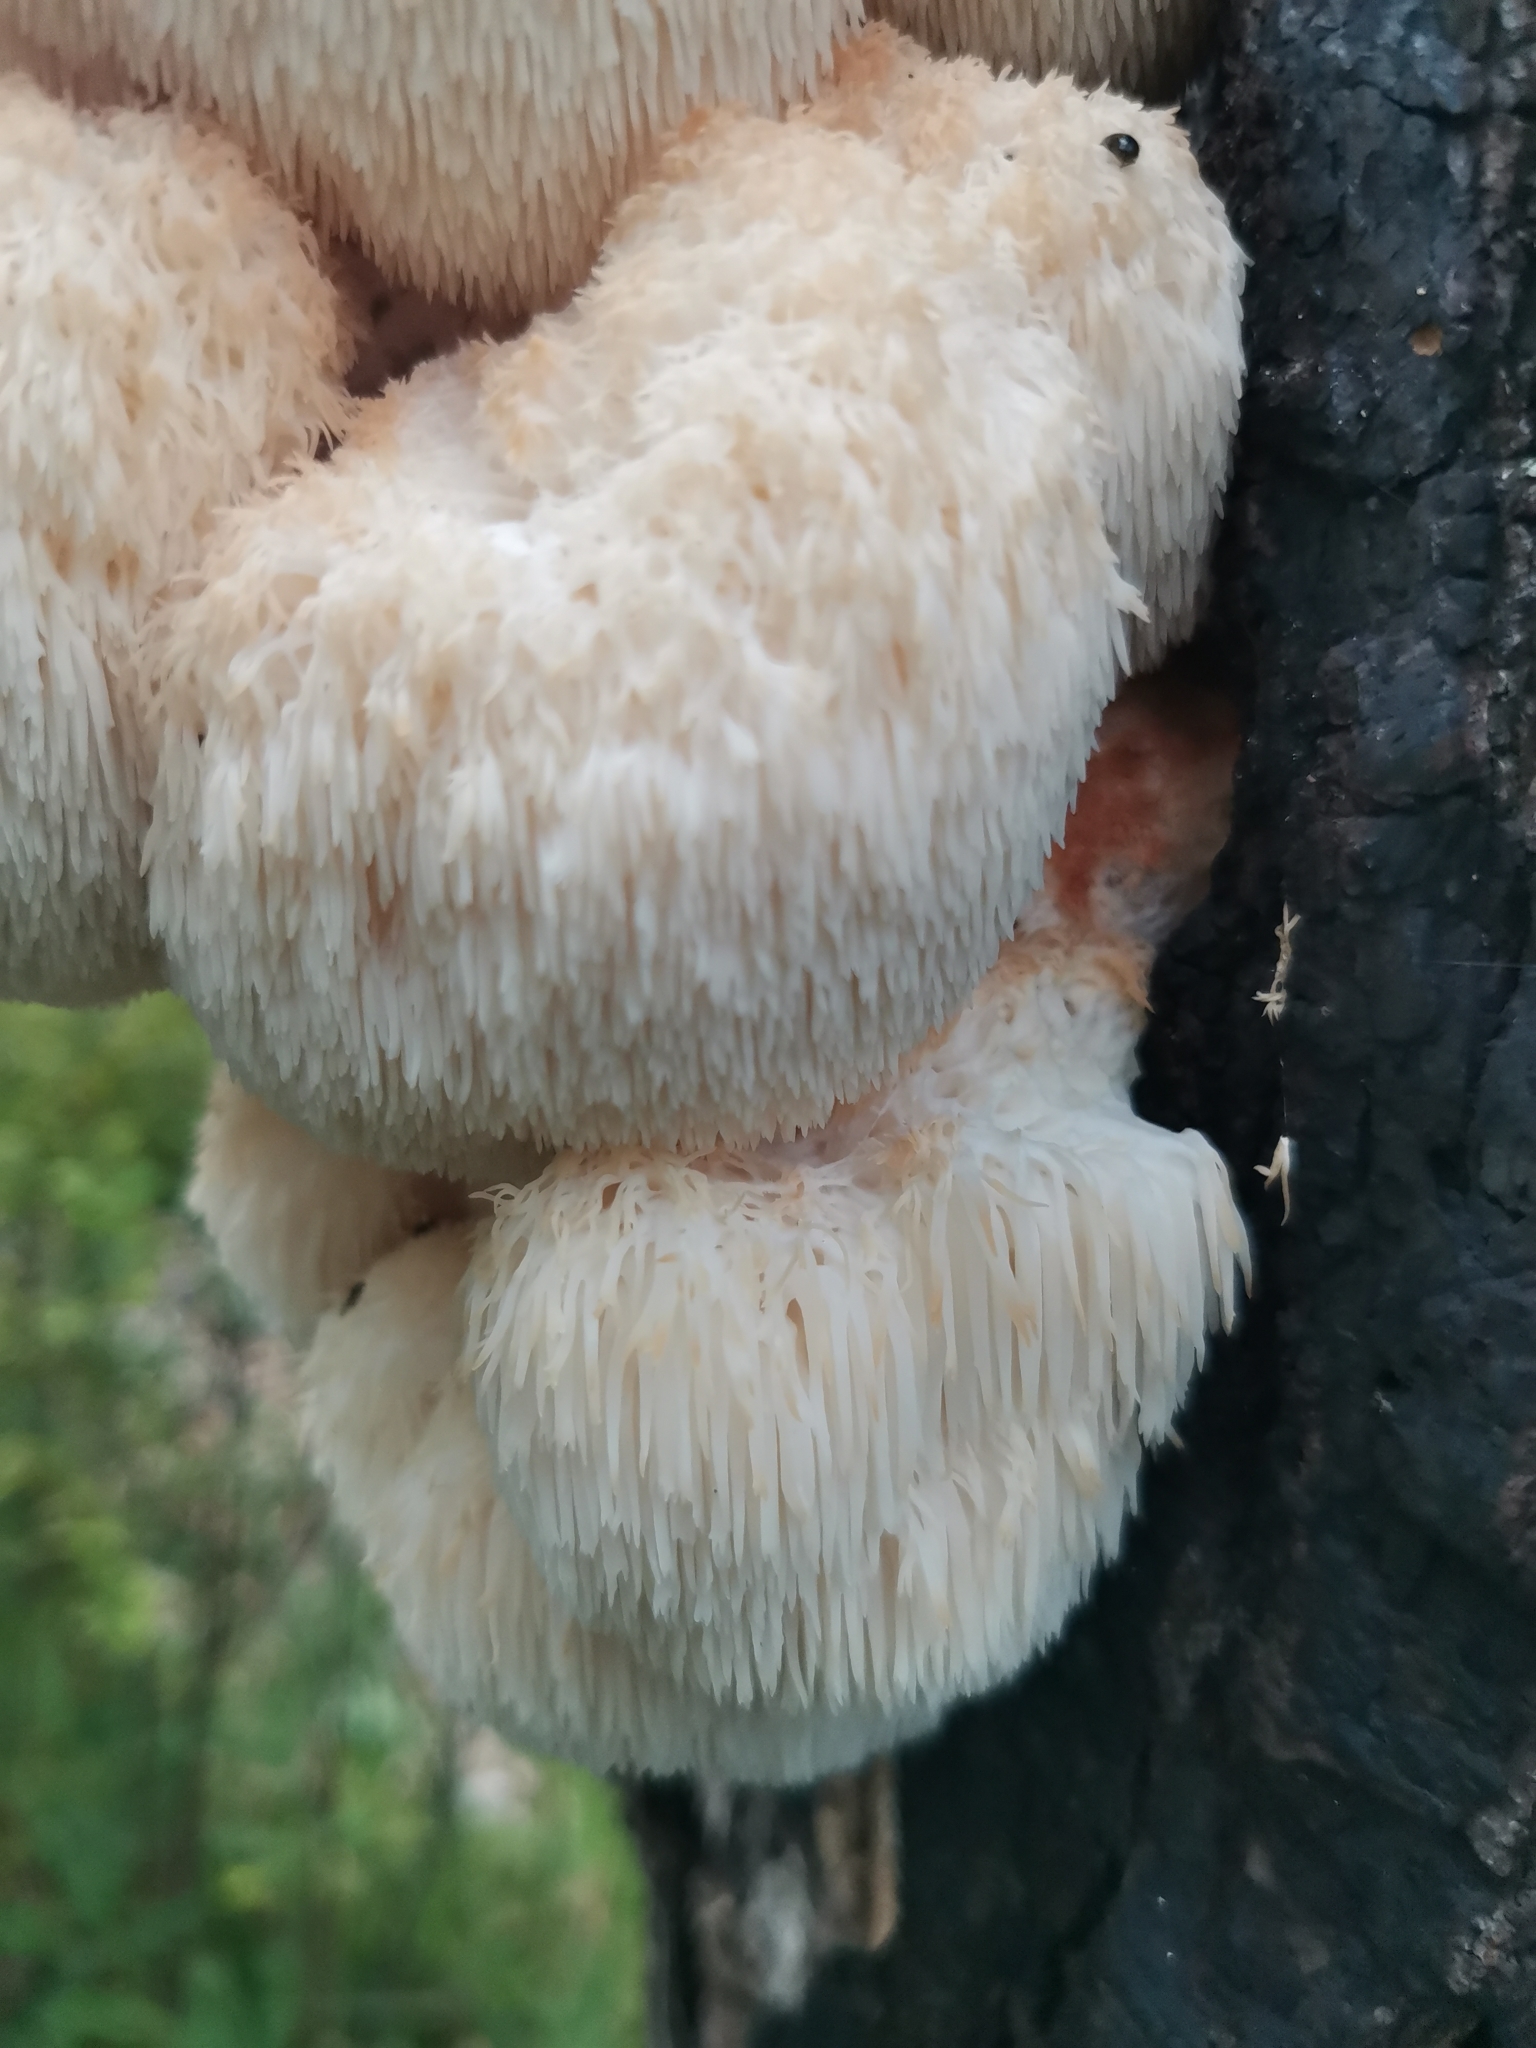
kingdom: Fungi
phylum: Basidiomycota
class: Agaricomycetes
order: Russulales
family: Hericiaceae
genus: Hericium
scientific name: Hericium erinaceus
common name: Bearded tooth
